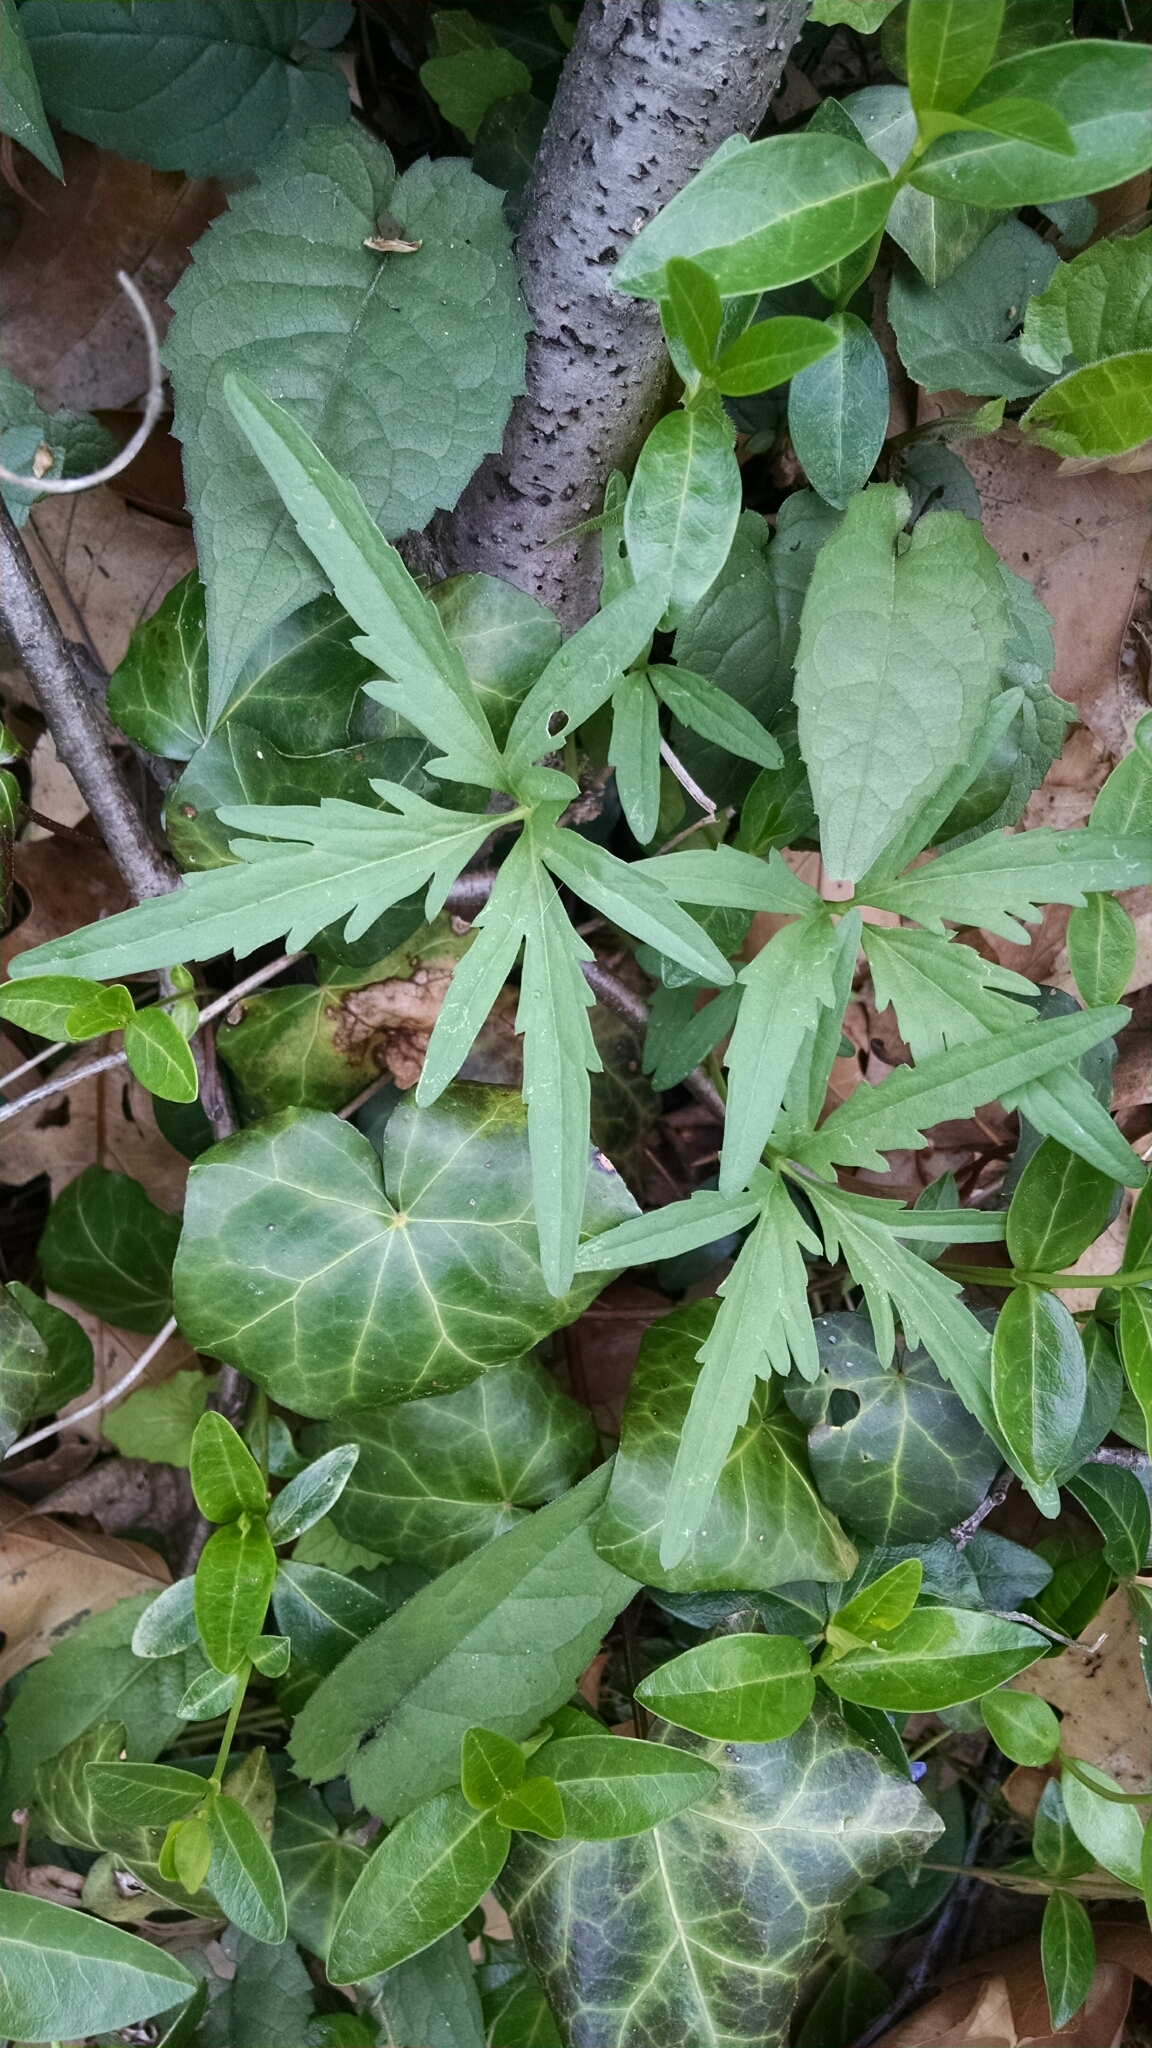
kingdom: Plantae
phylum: Tracheophyta
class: Magnoliopsida
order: Brassicales
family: Brassicaceae
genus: Cardamine
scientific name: Cardamine concatenata
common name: Cut-leaf toothcup
